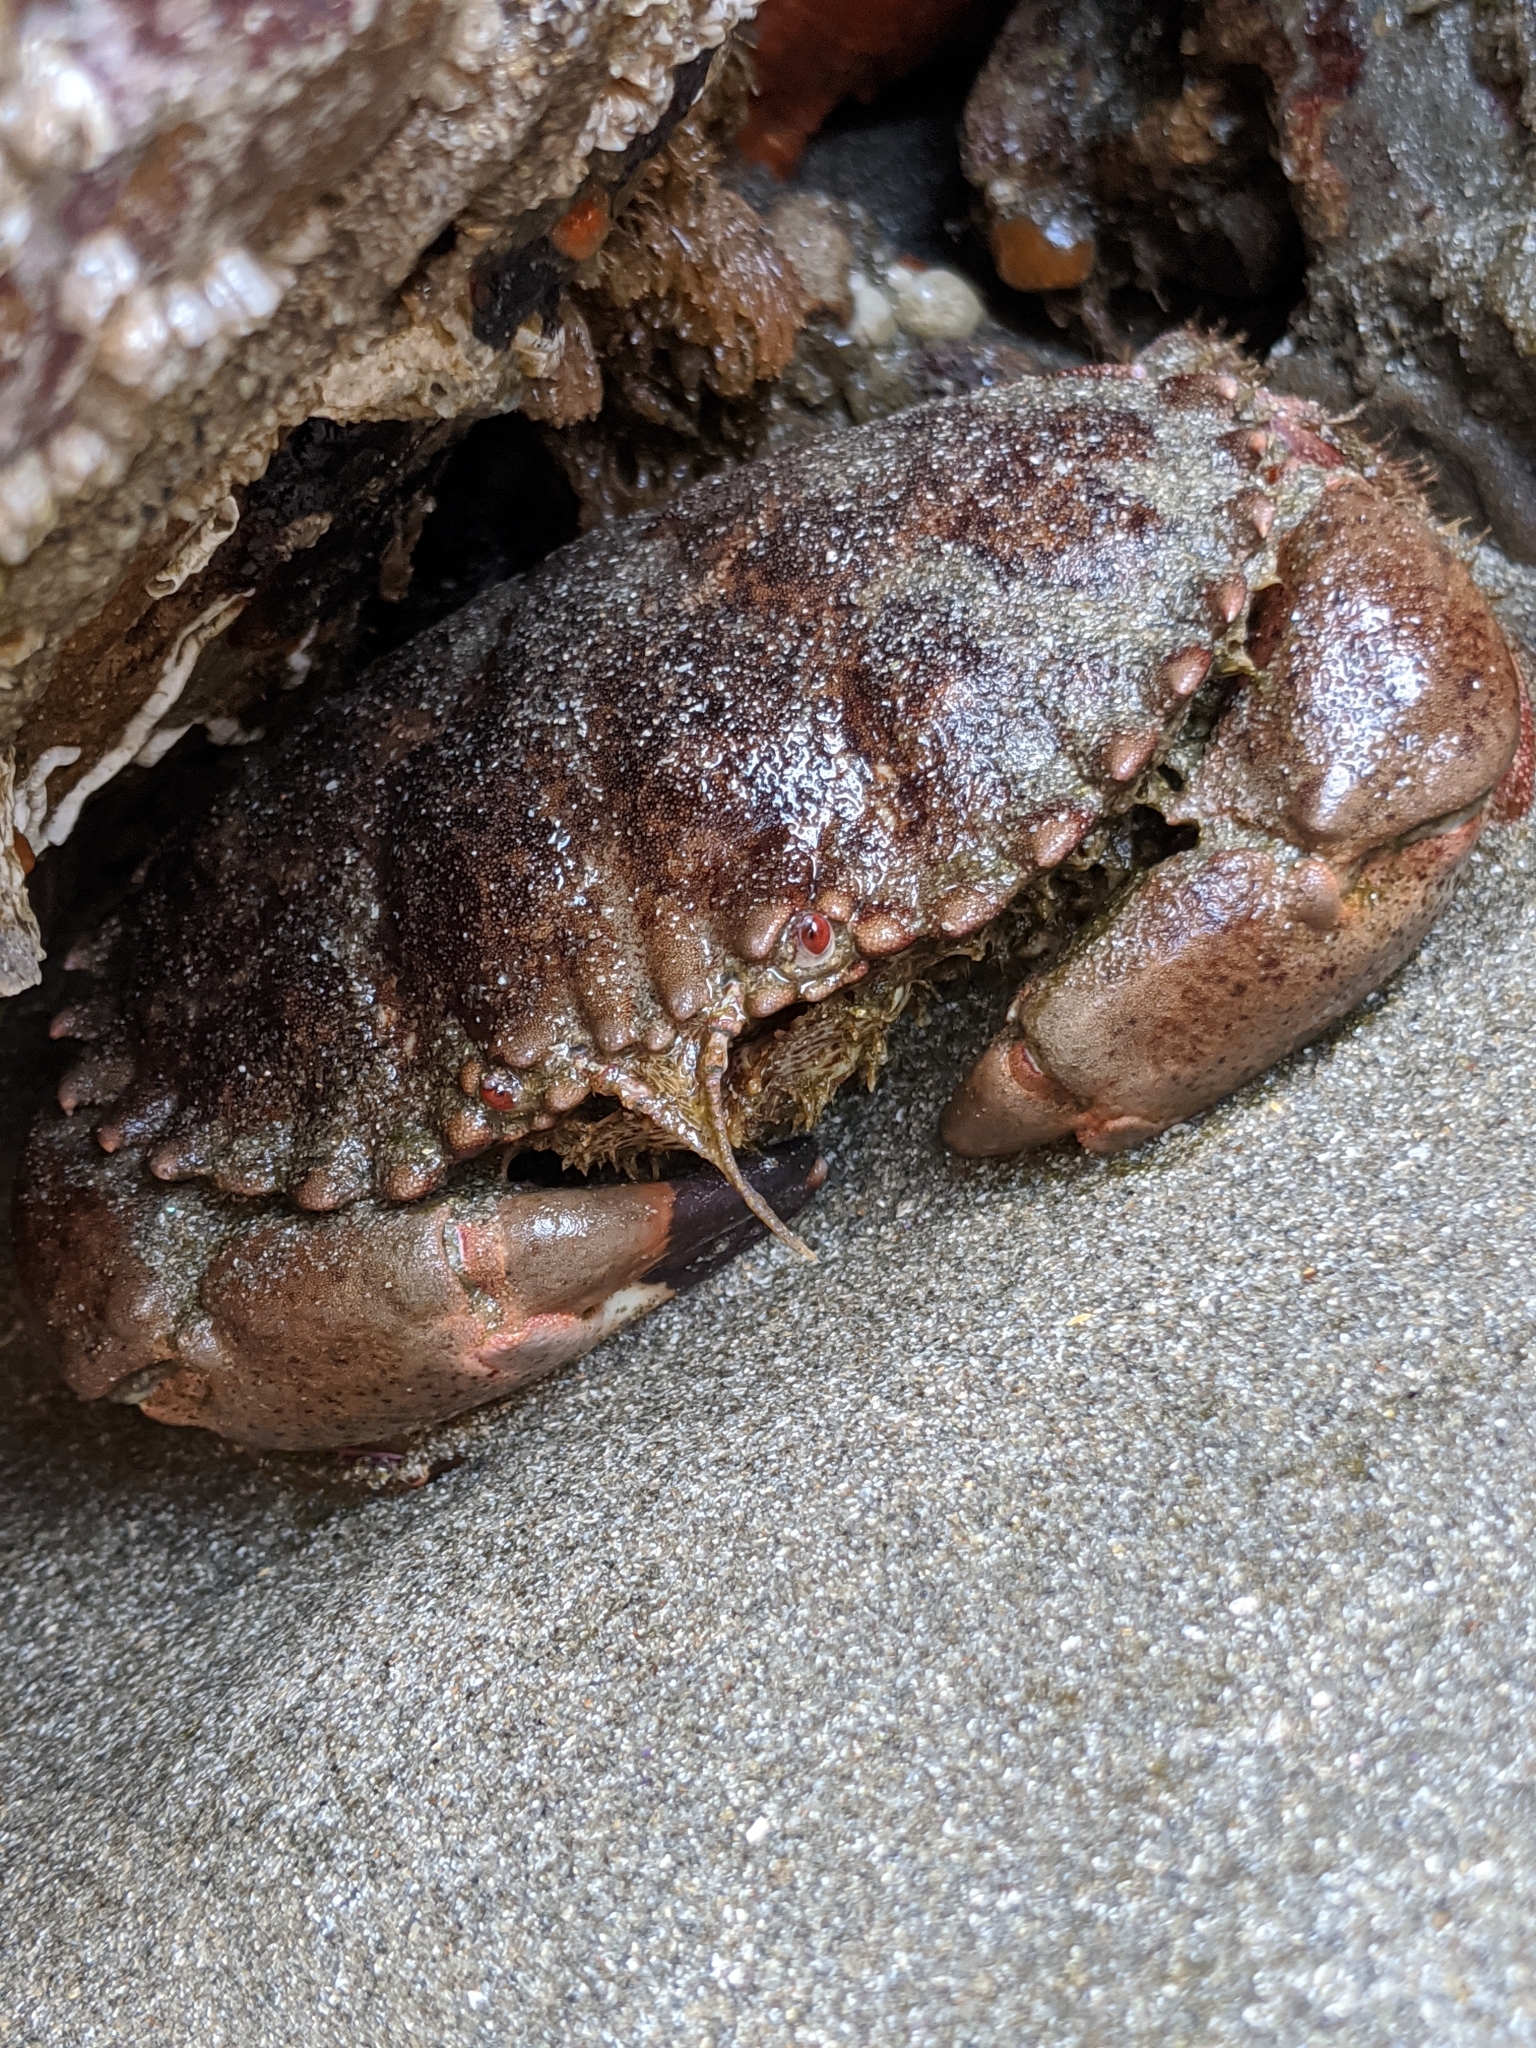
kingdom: Animalia
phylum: Arthropoda
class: Malacostraca
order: Decapoda
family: Cancridae
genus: Romaleon
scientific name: Romaleon antennarium
